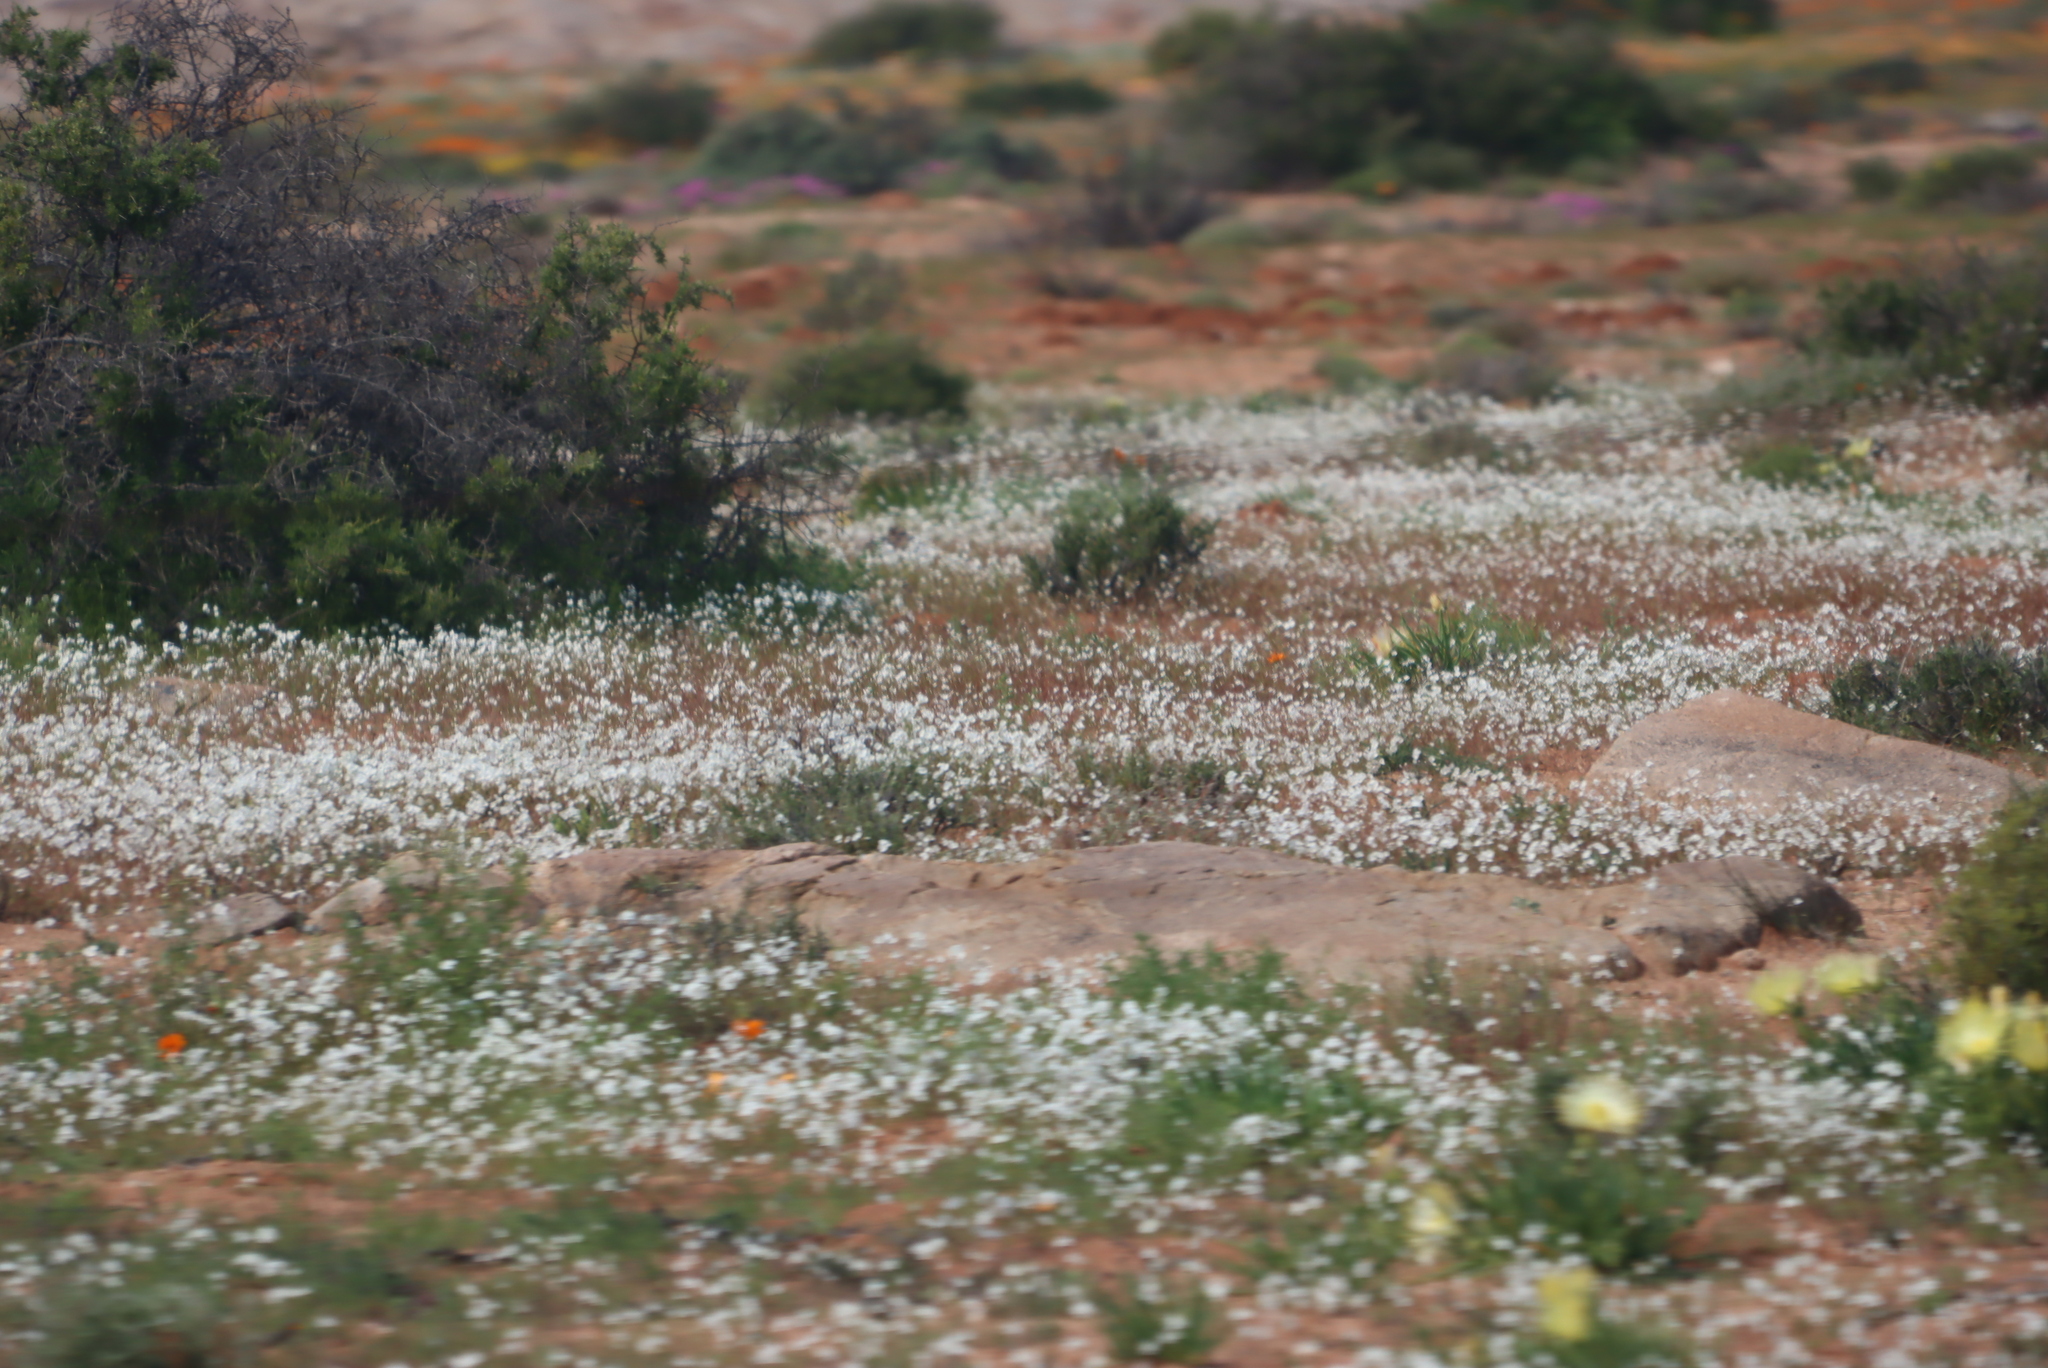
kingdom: Plantae
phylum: Tracheophyta
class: Magnoliopsida
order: Brassicales
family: Brassicaceae
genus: Heliophila
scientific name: Heliophila variabilis
